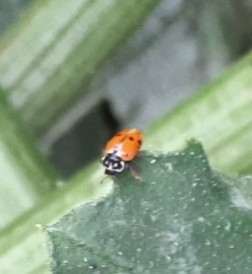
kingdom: Animalia
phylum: Arthropoda
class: Insecta
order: Coleoptera
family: Coccinellidae
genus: Hippodamia
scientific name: Hippodamia variegata
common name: Ladybird beetle
